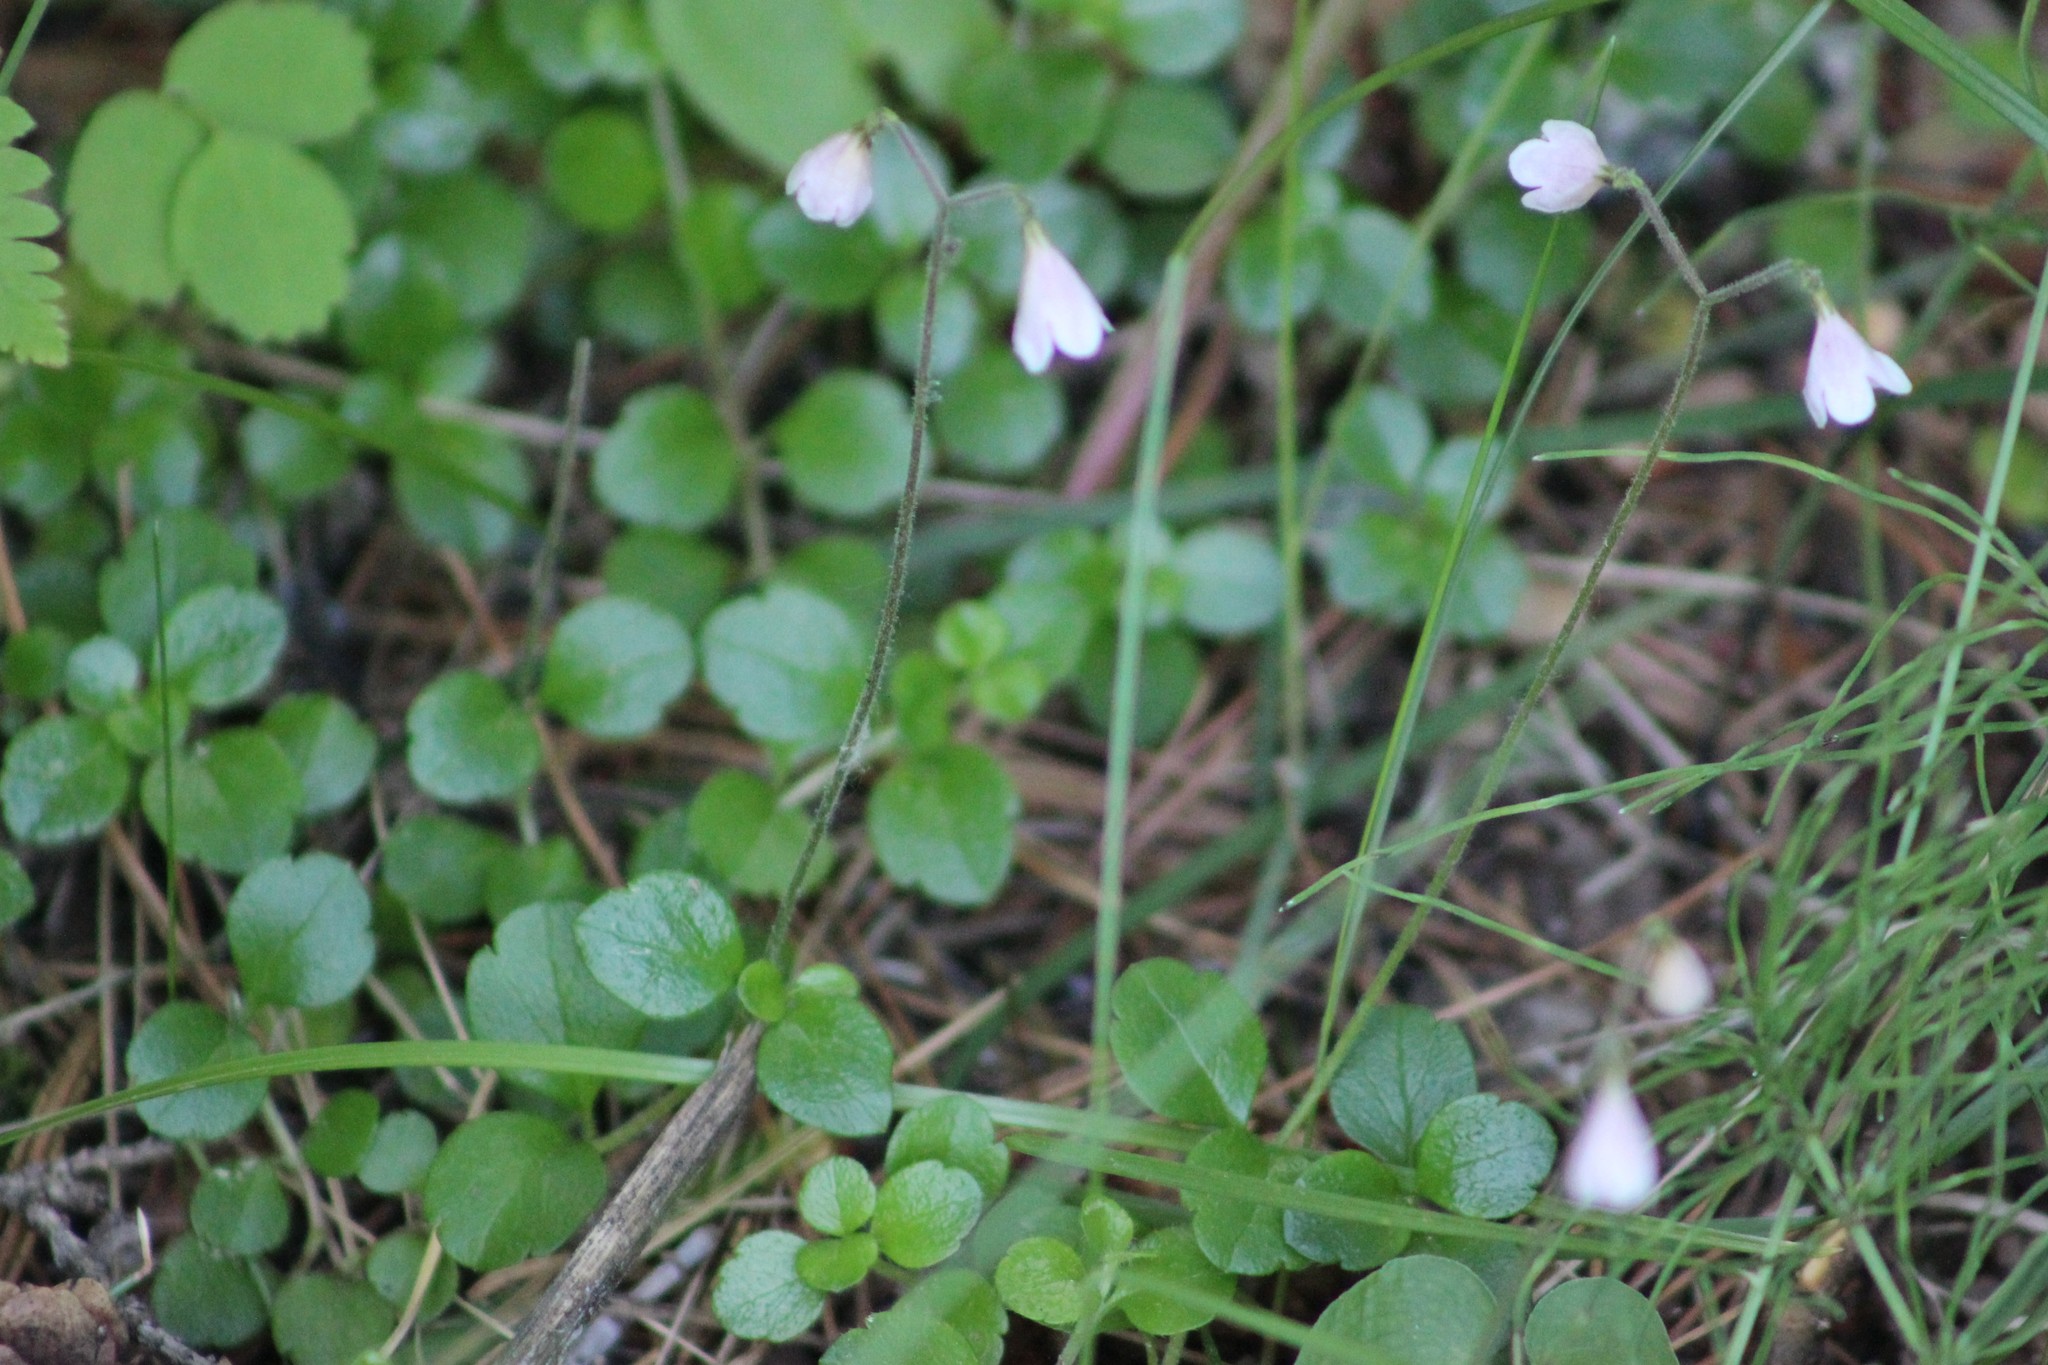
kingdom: Plantae
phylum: Tracheophyta
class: Magnoliopsida
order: Dipsacales
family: Caprifoliaceae
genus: Linnaea
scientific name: Linnaea borealis
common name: Twinflower
